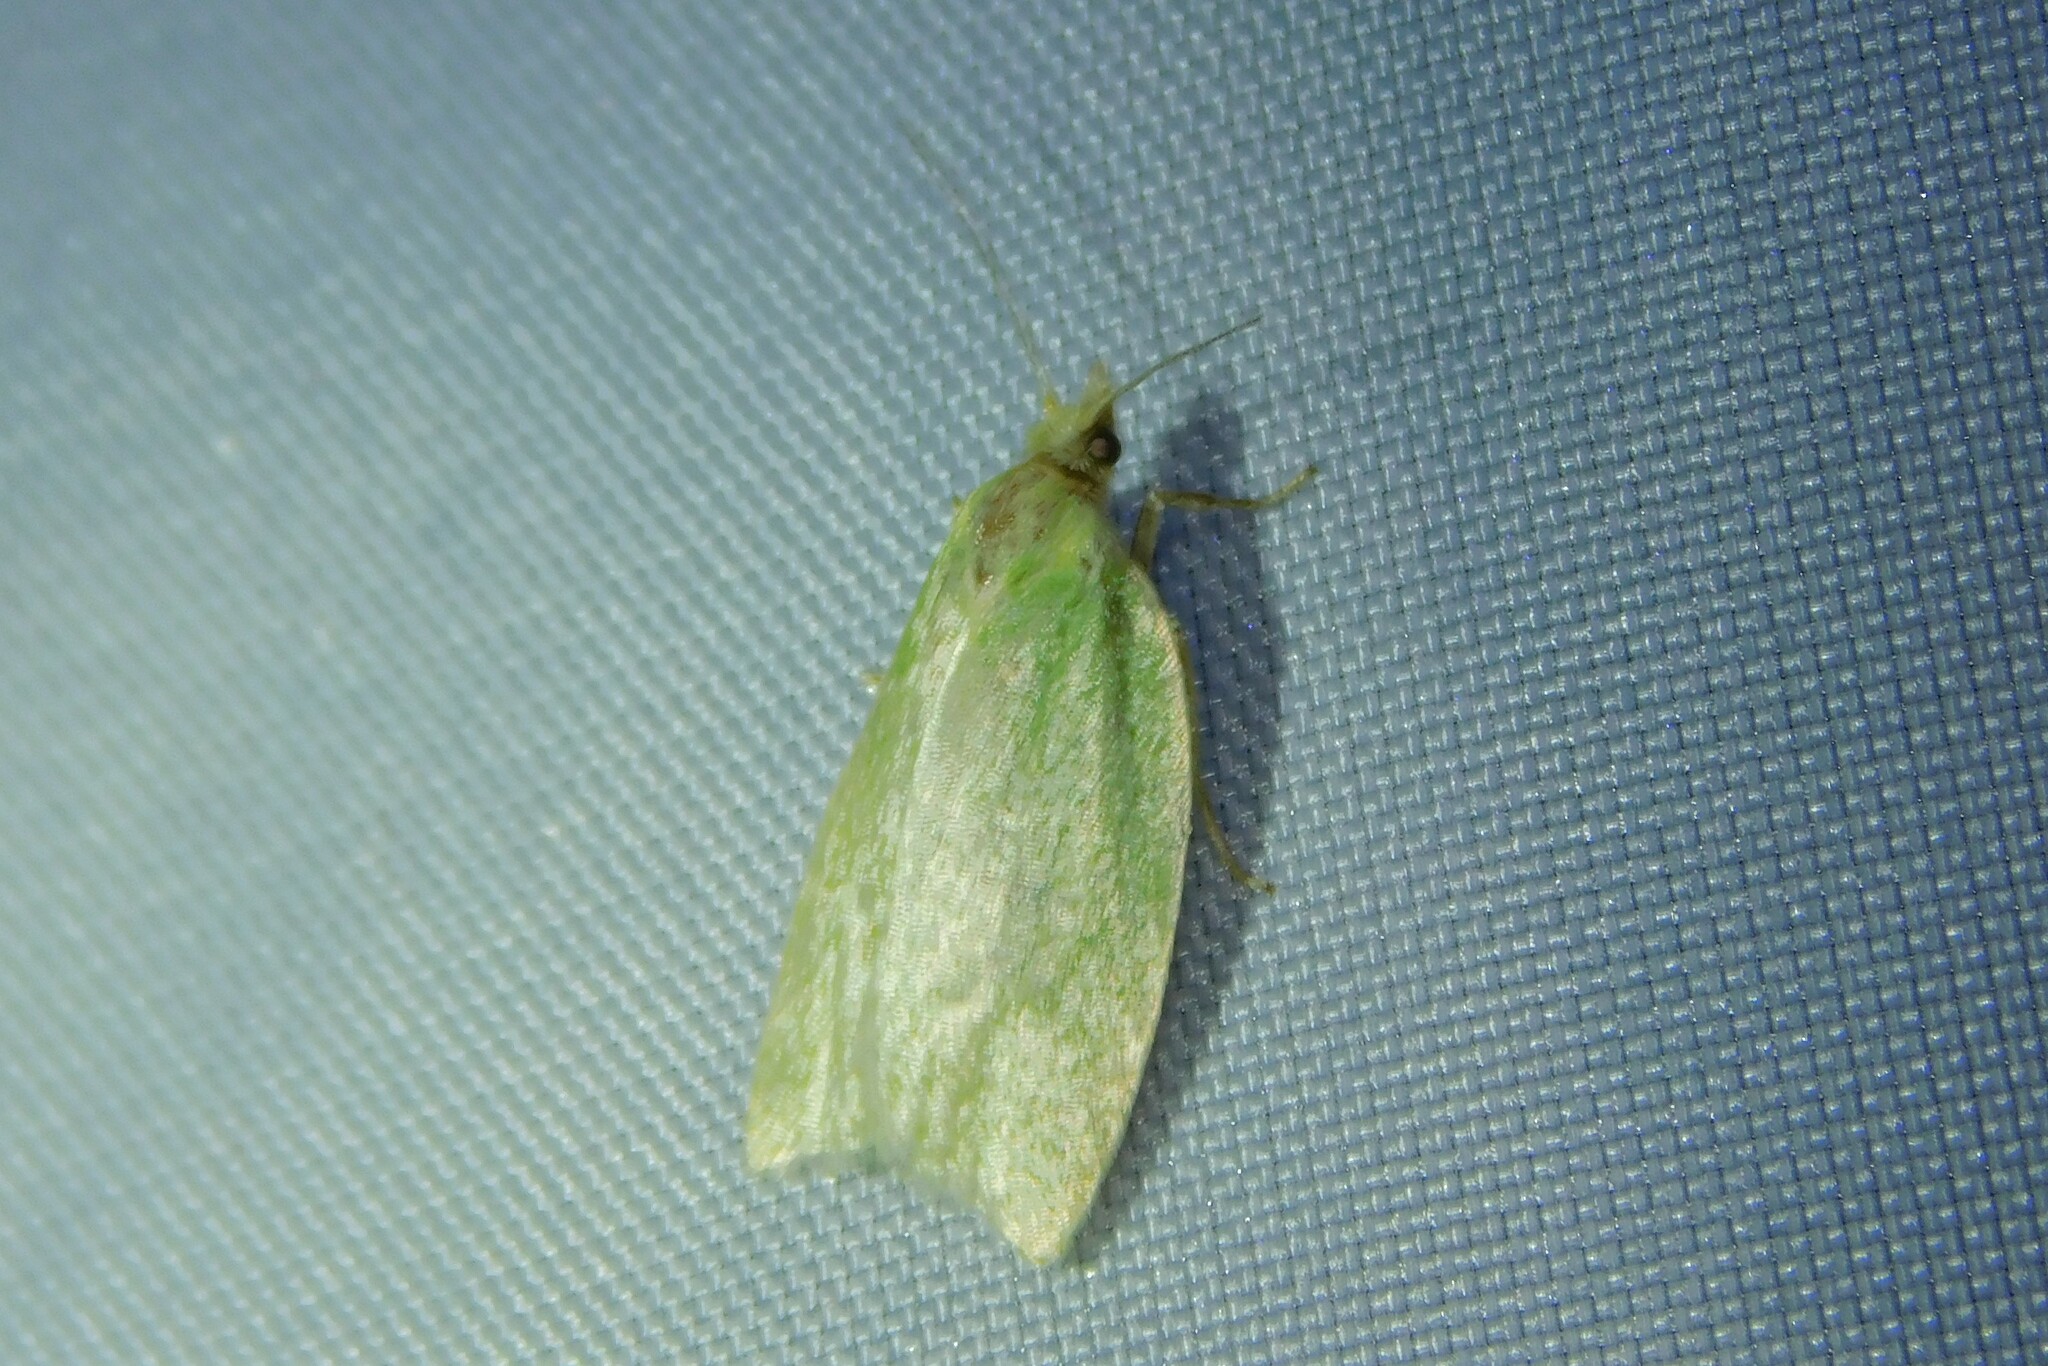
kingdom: Animalia
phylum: Arthropoda
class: Insecta
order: Lepidoptera
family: Tortricidae
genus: Tortrix
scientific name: Tortrix viridana
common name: Green oak tortrix
